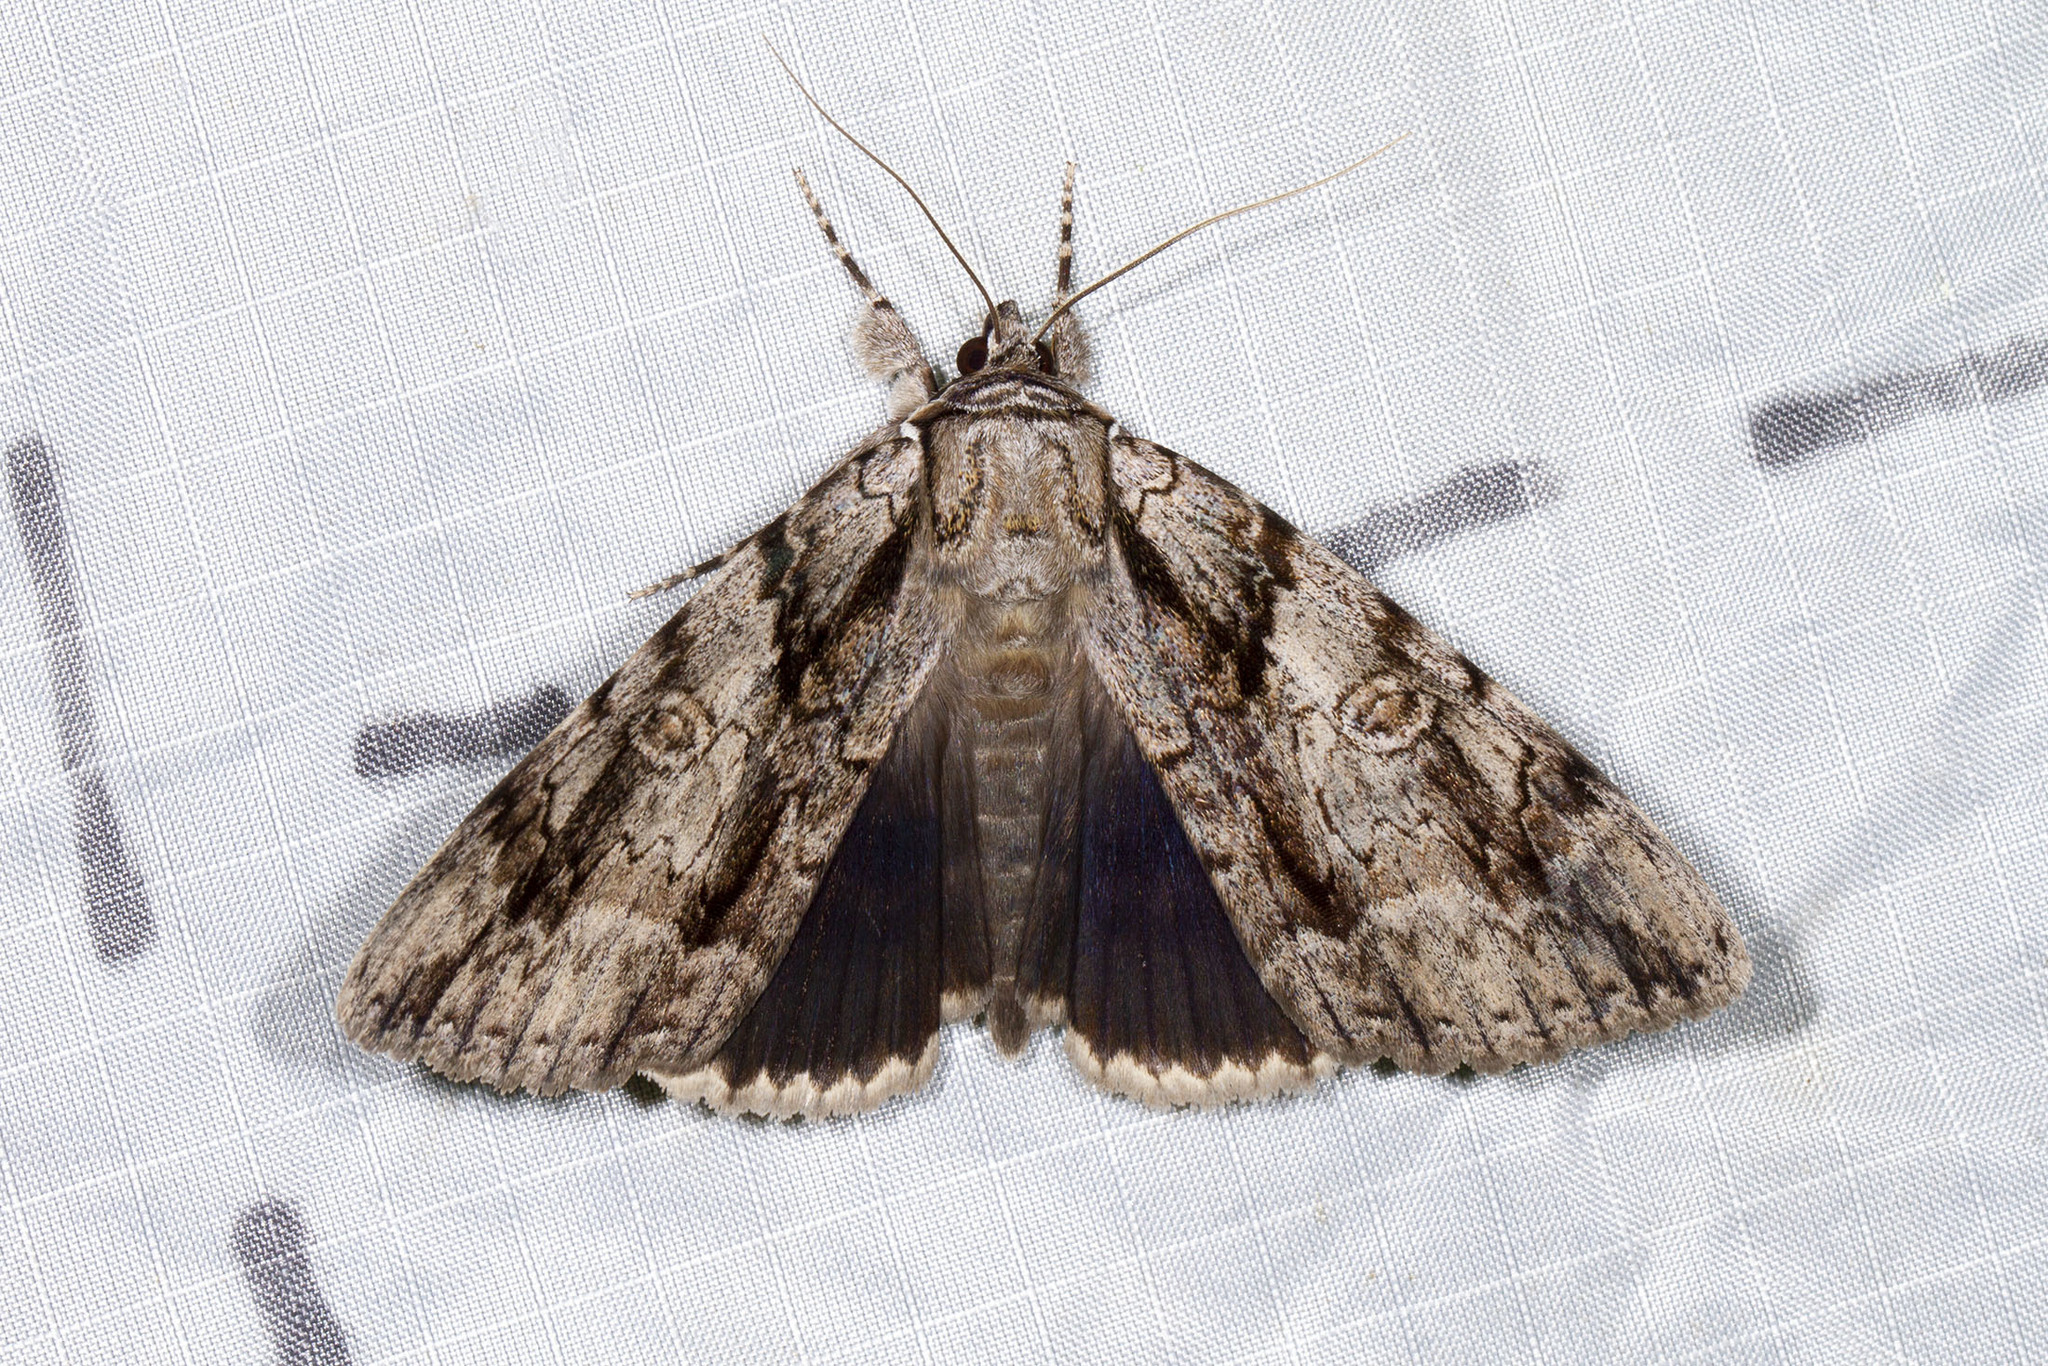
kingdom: Animalia
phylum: Arthropoda
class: Insecta
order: Lepidoptera
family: Erebidae
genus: Catocala
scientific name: Catocala vidua
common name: The widow
